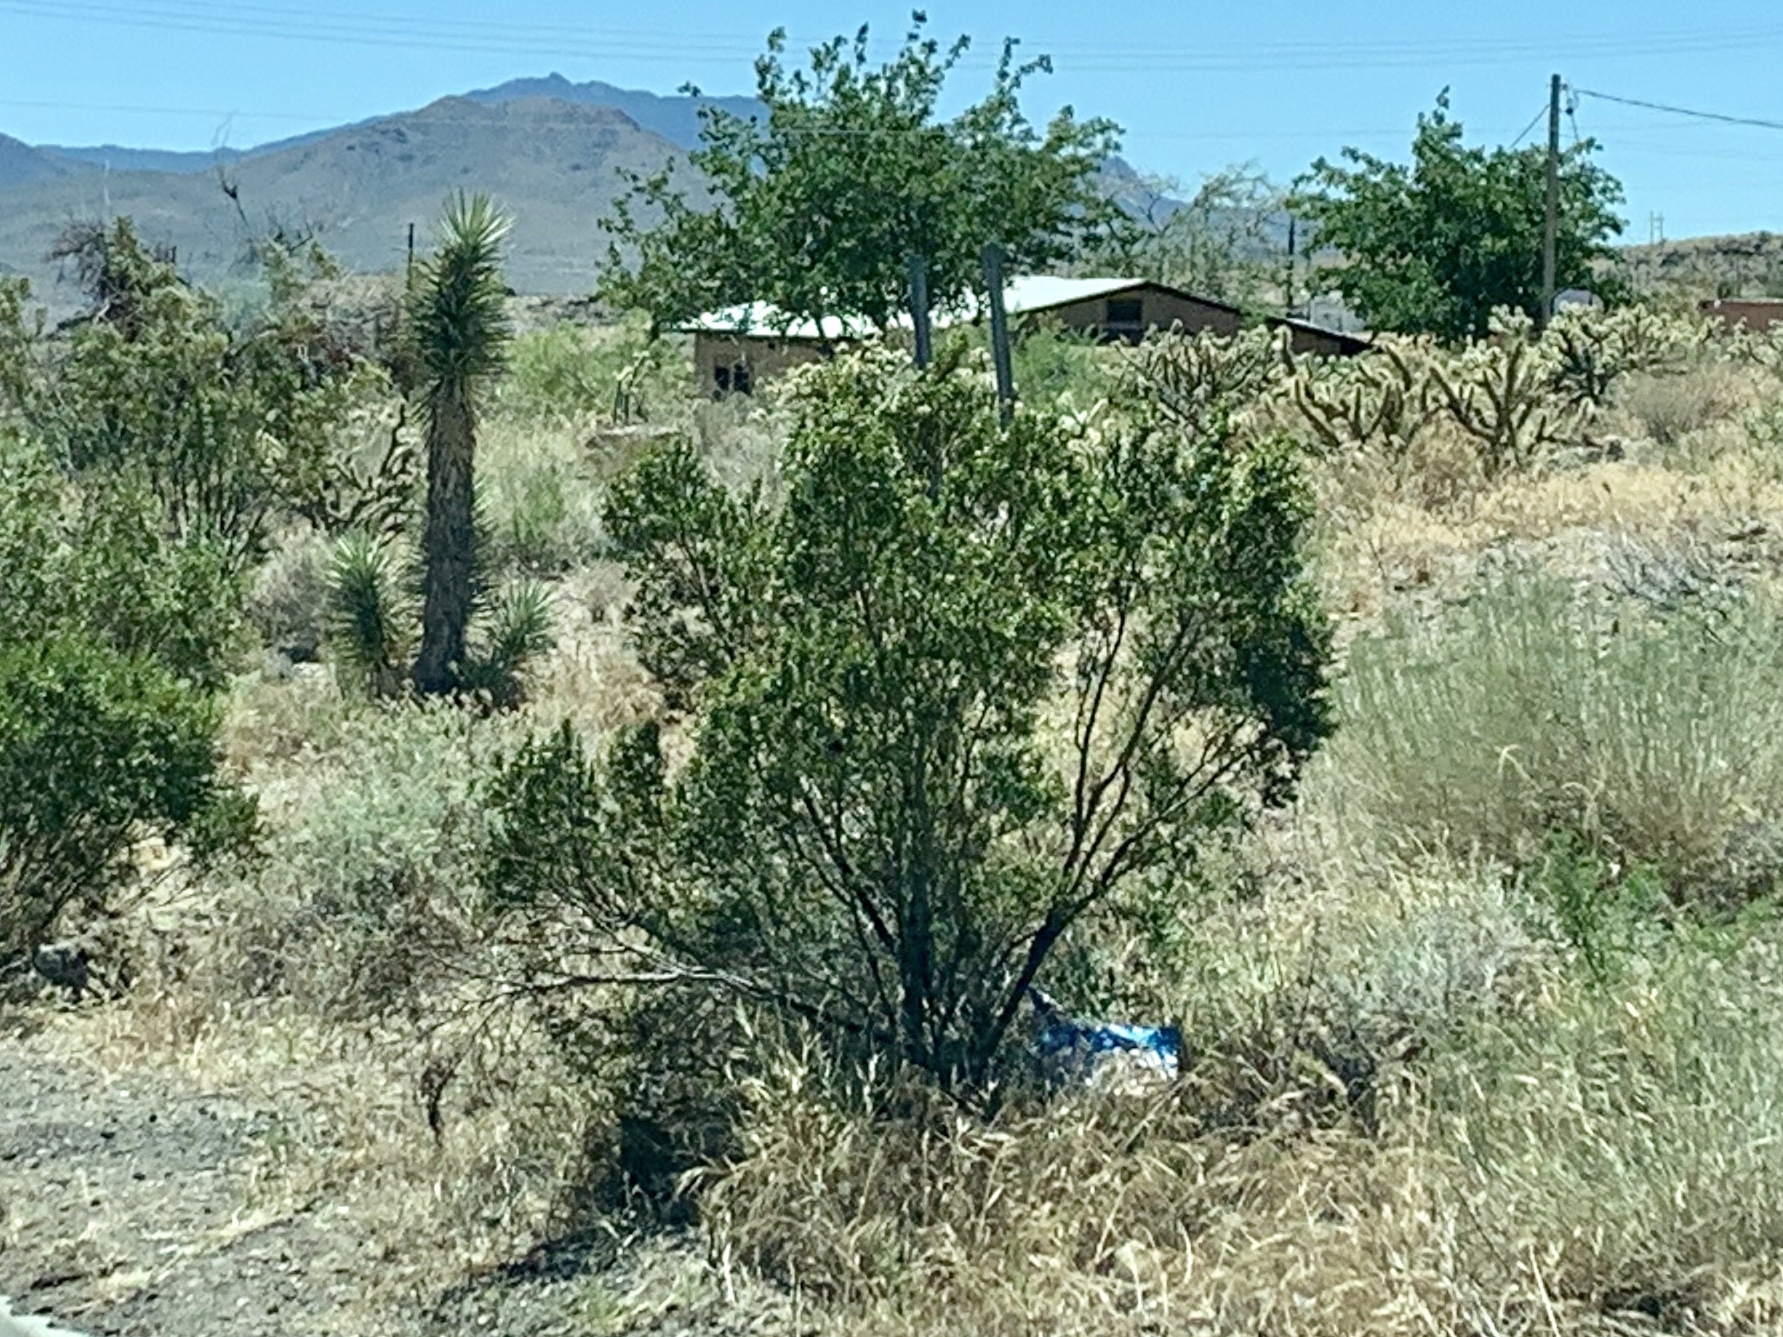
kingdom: Plantae
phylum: Tracheophyta
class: Magnoliopsida
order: Zygophyllales
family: Zygophyllaceae
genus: Larrea
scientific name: Larrea tridentata
